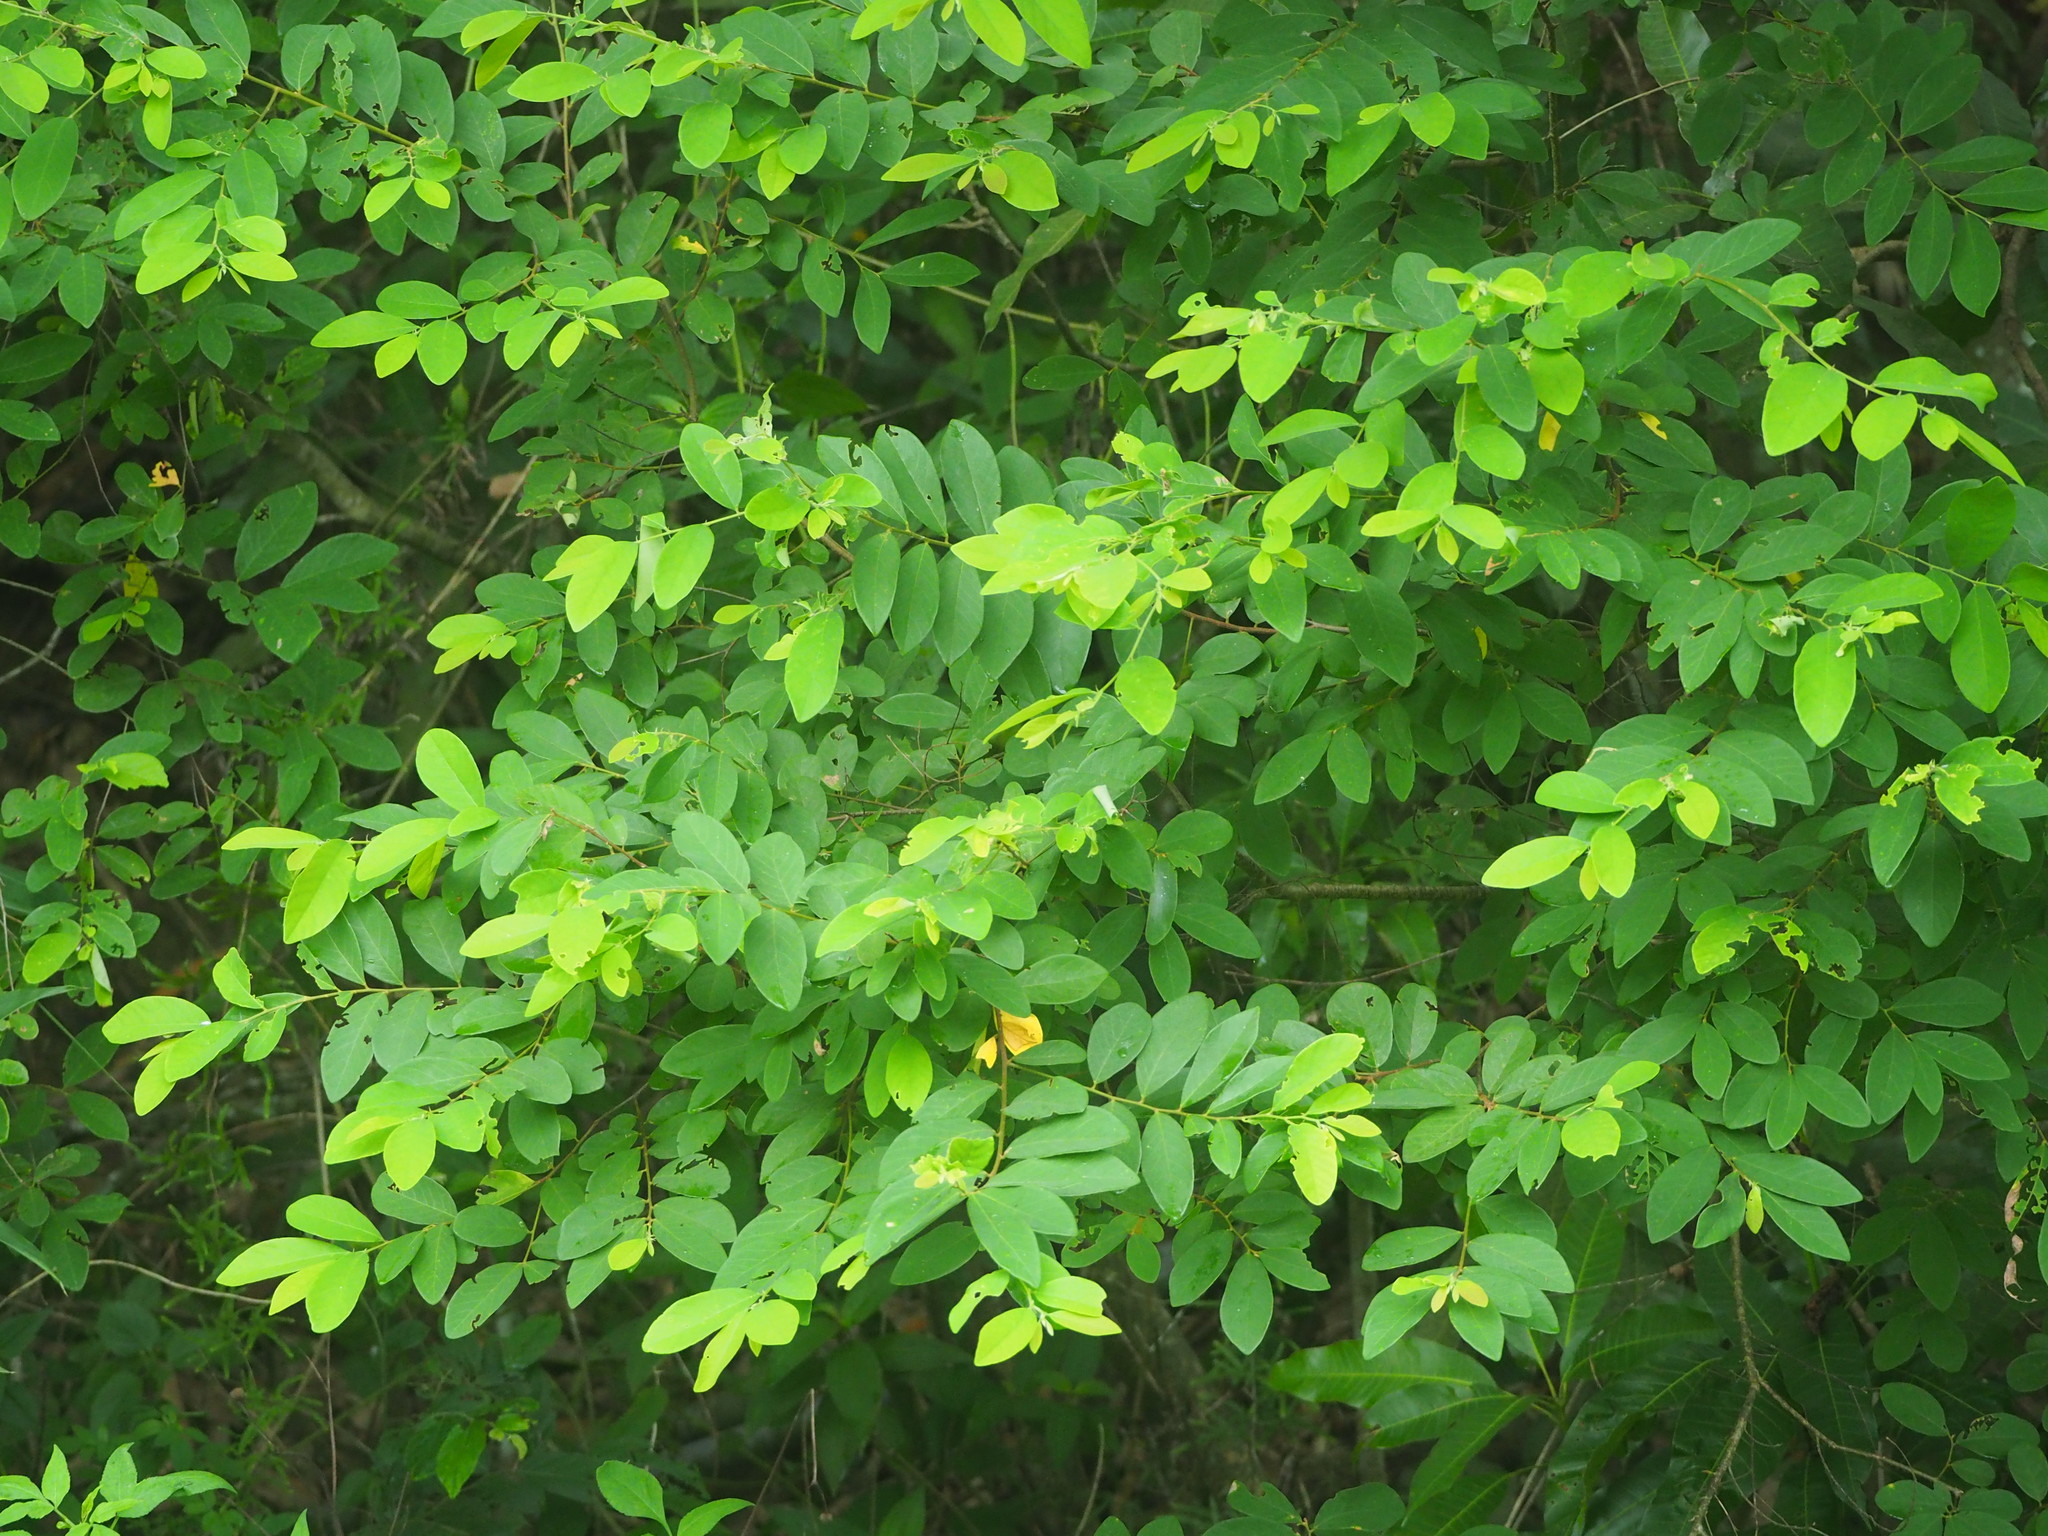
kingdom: Plantae
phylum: Tracheophyta
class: Magnoliopsida
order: Malpighiales
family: Phyllanthaceae
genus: Bridelia
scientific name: Bridelia tomentosa
